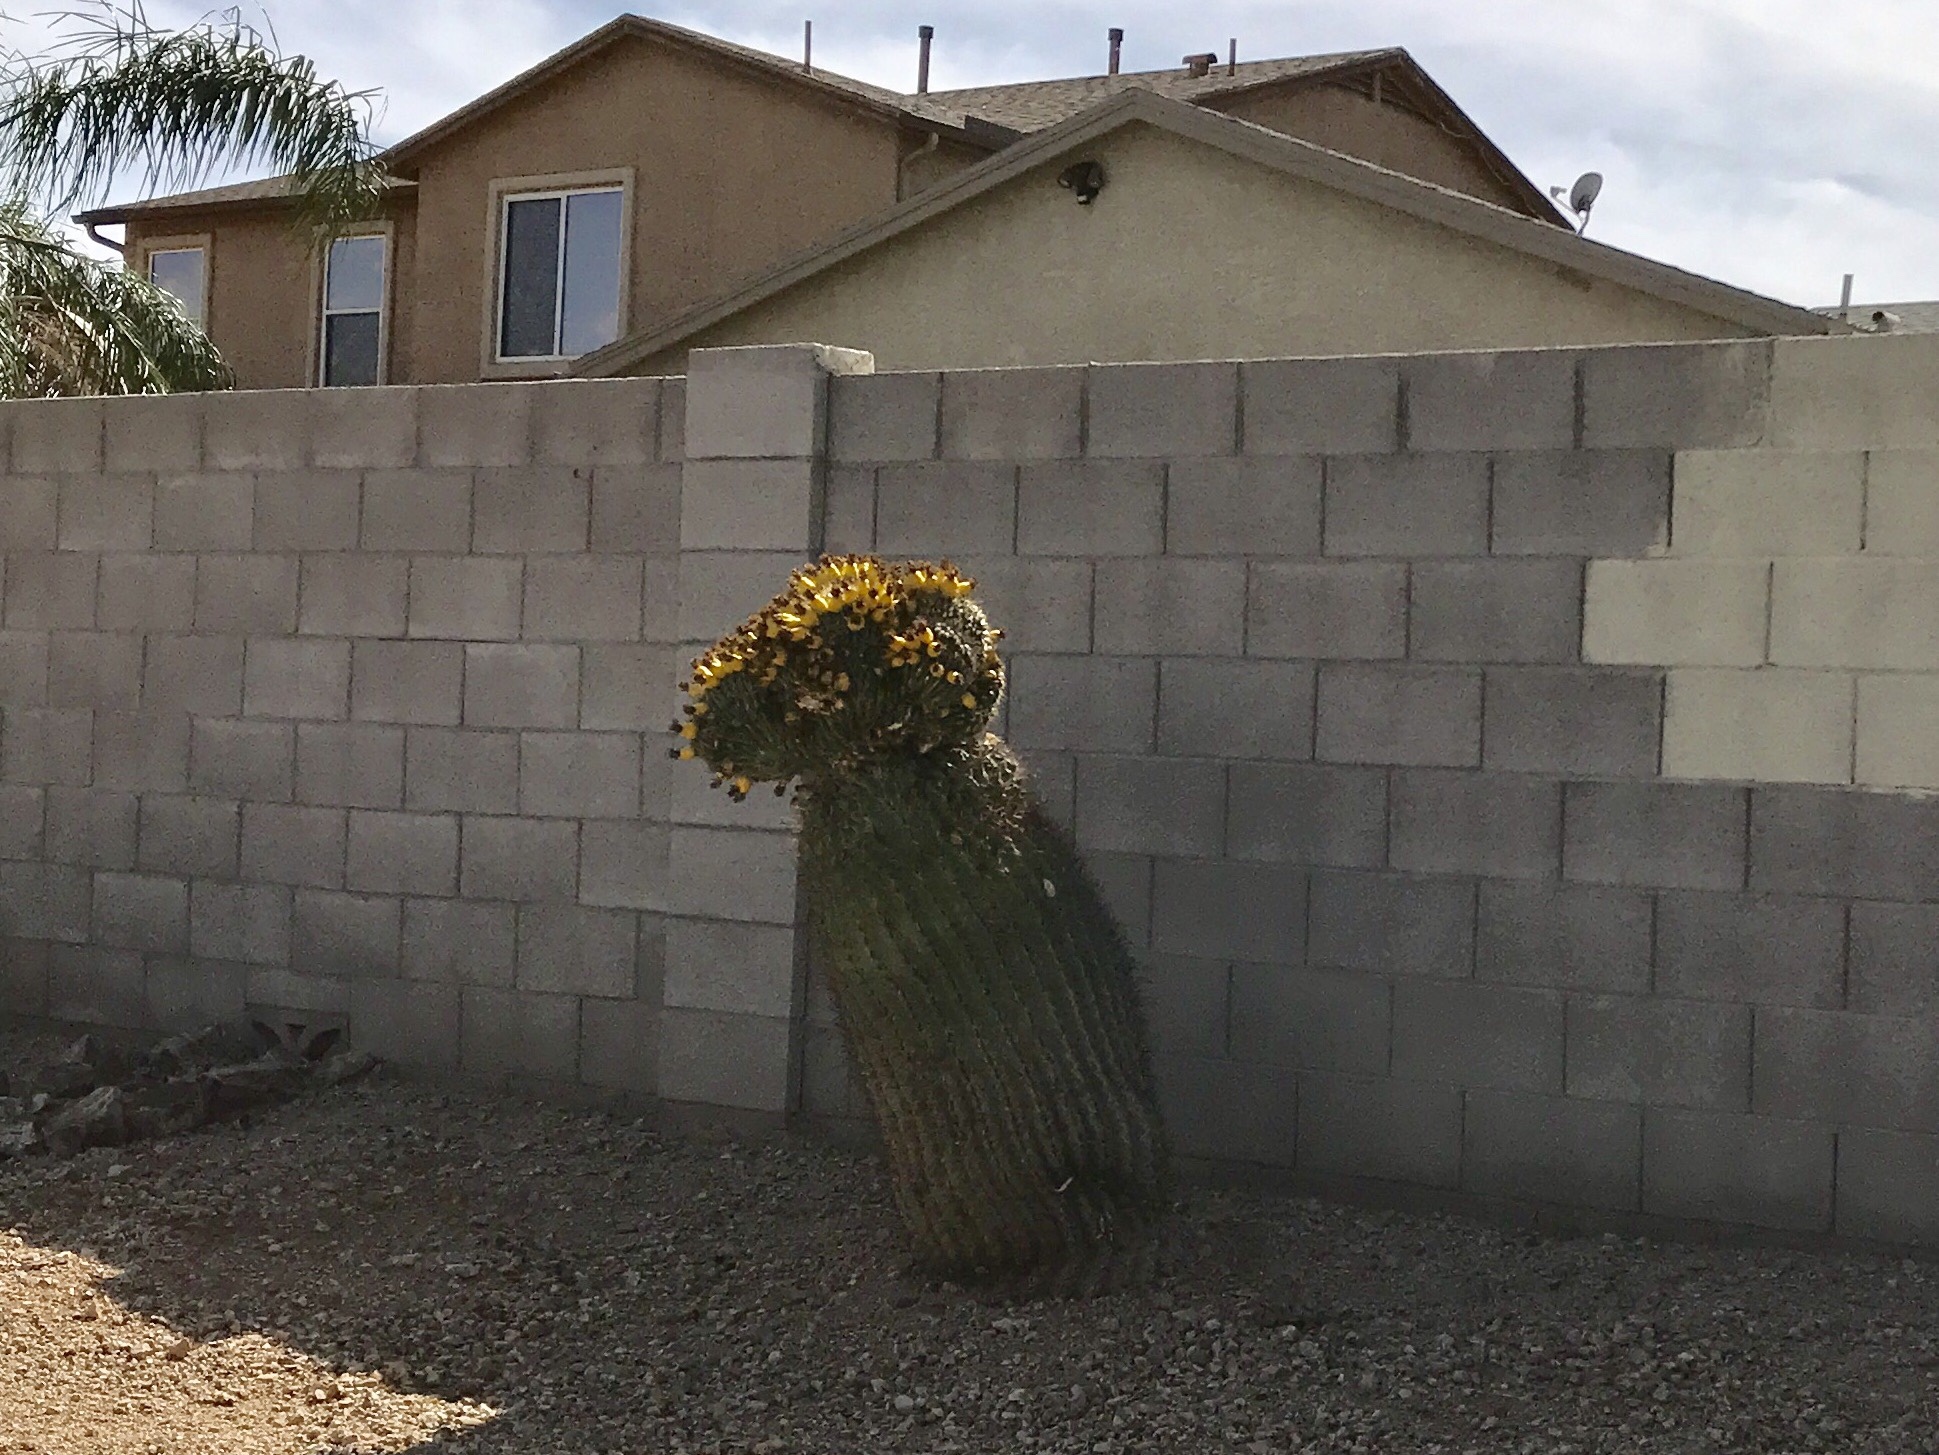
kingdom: Plantae
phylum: Tracheophyta
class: Magnoliopsida
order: Caryophyllales
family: Cactaceae
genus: Ferocactus
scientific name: Ferocactus wislizeni
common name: Candy barrel cactus
